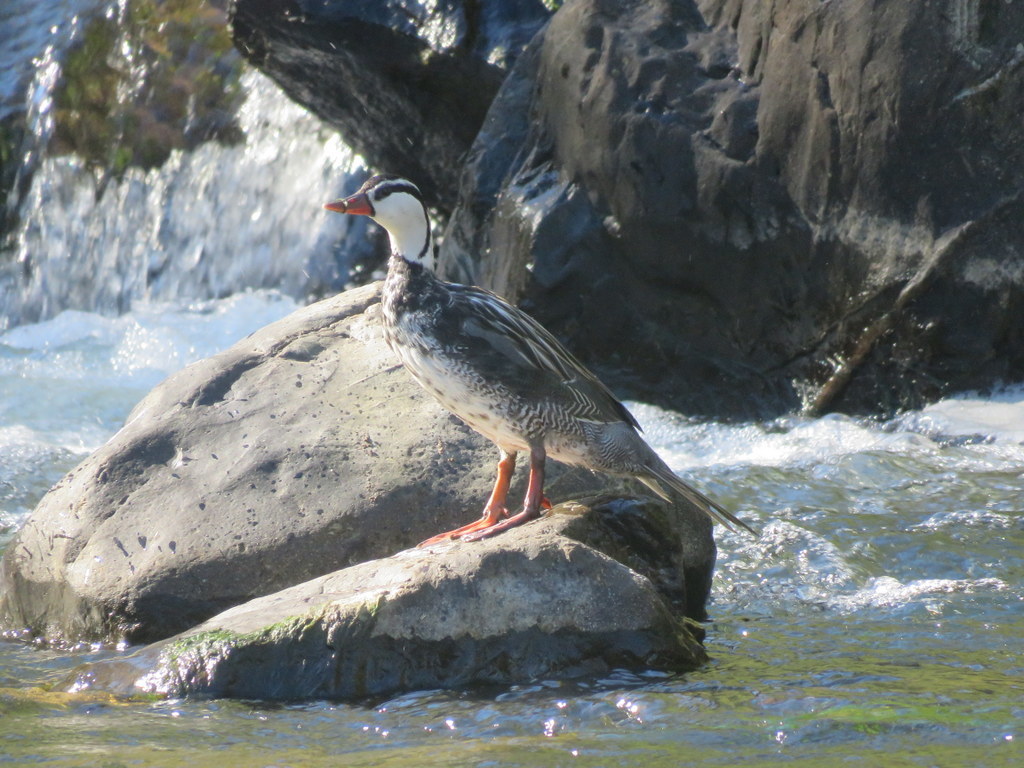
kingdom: Animalia
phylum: Chordata
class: Aves
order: Anseriformes
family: Anatidae
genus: Merganetta
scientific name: Merganetta armata
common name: Torrent duck
